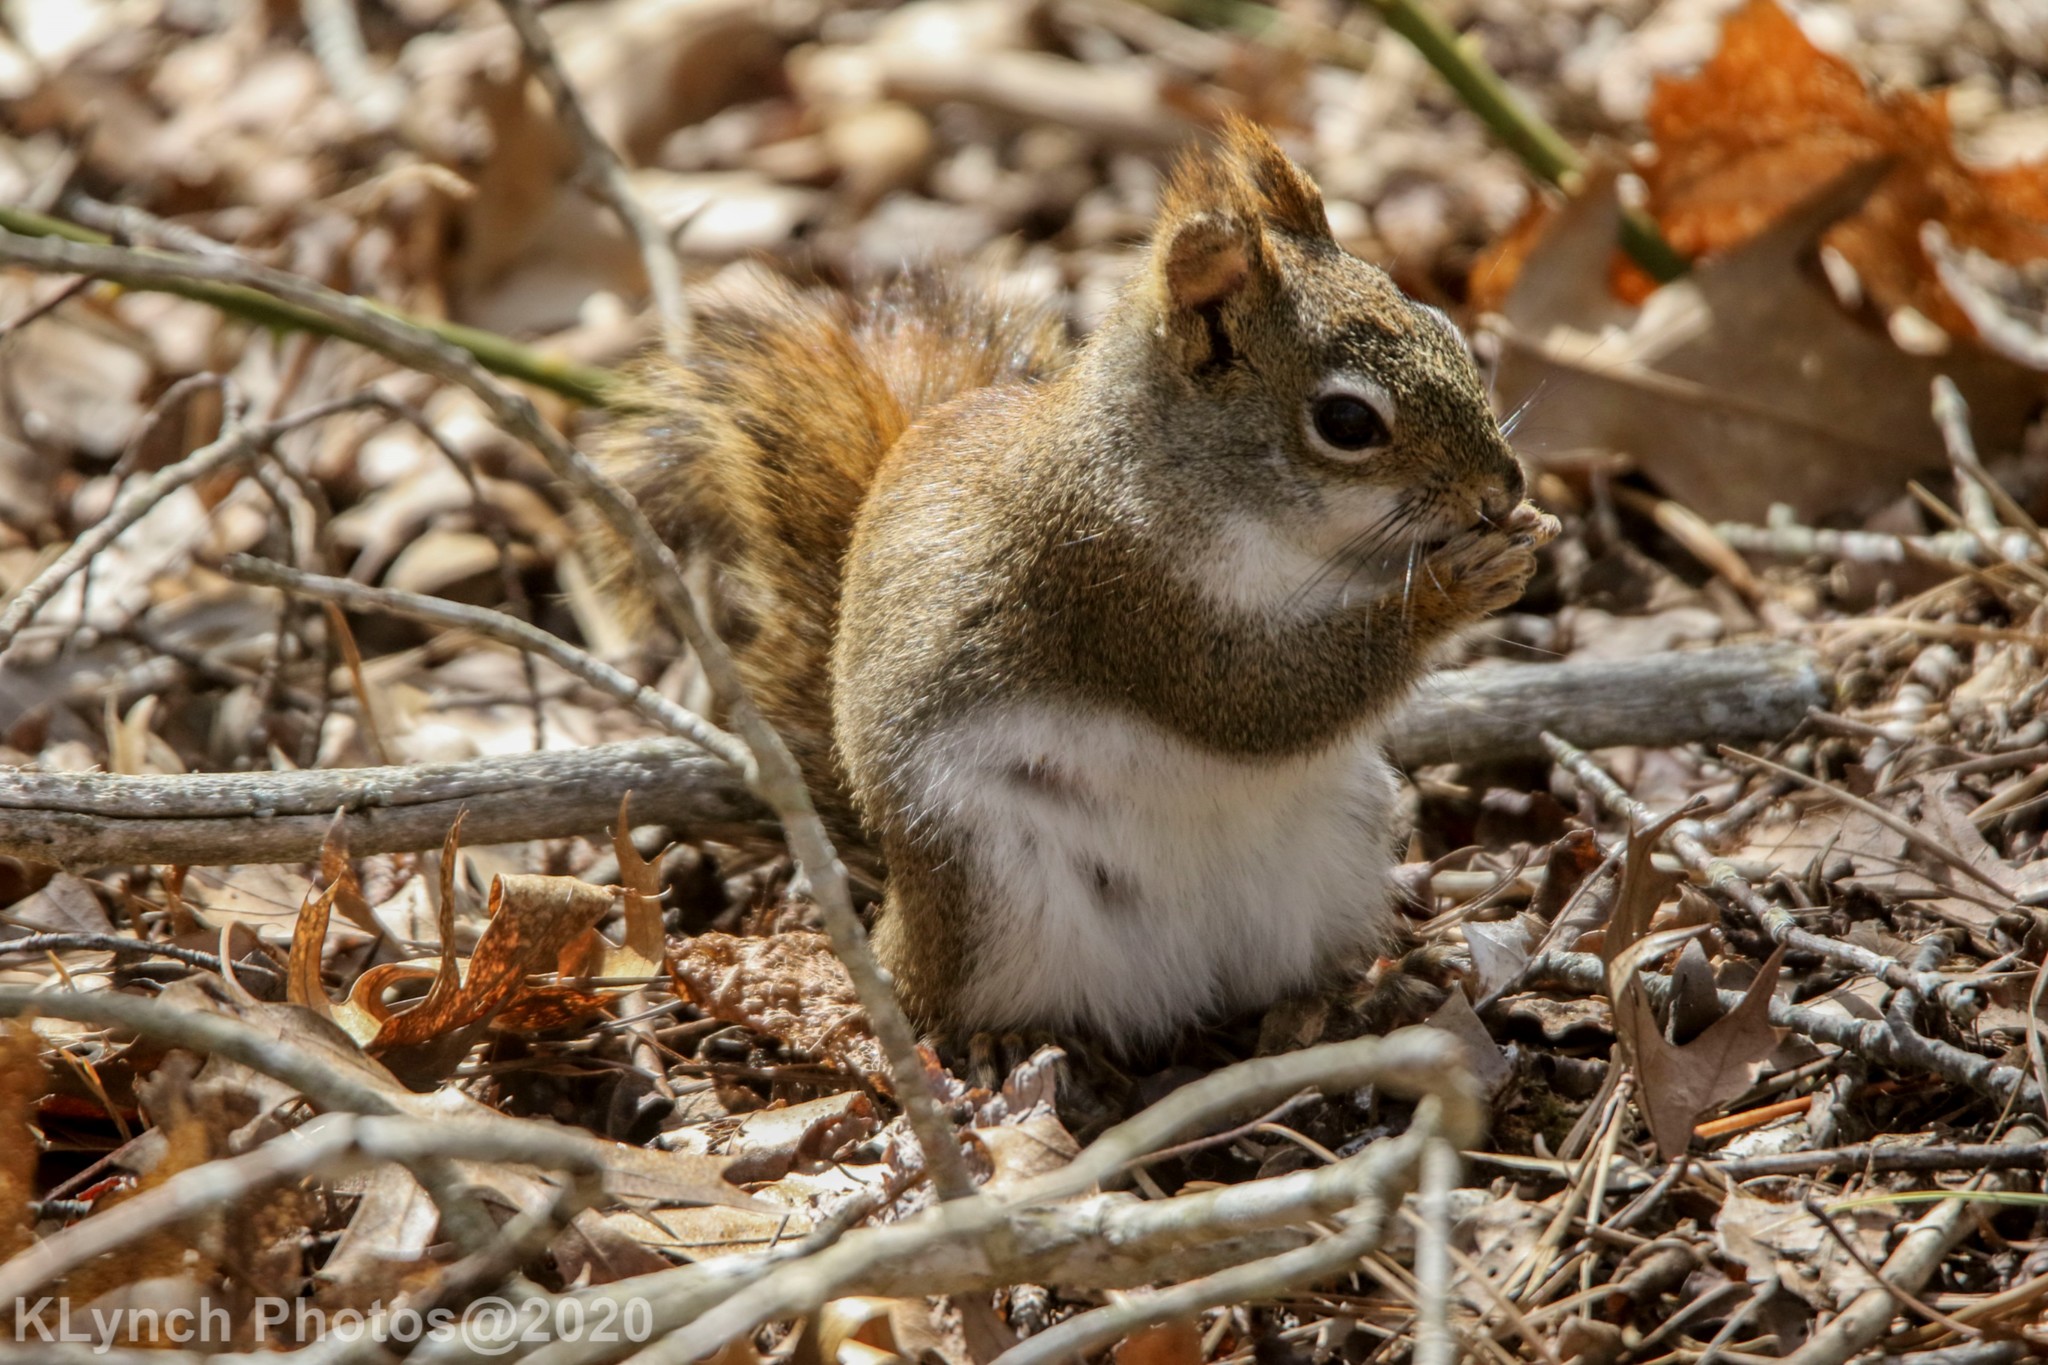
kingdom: Animalia
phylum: Chordata
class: Mammalia
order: Rodentia
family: Sciuridae
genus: Tamiasciurus
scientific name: Tamiasciurus hudsonicus
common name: Red squirrel
